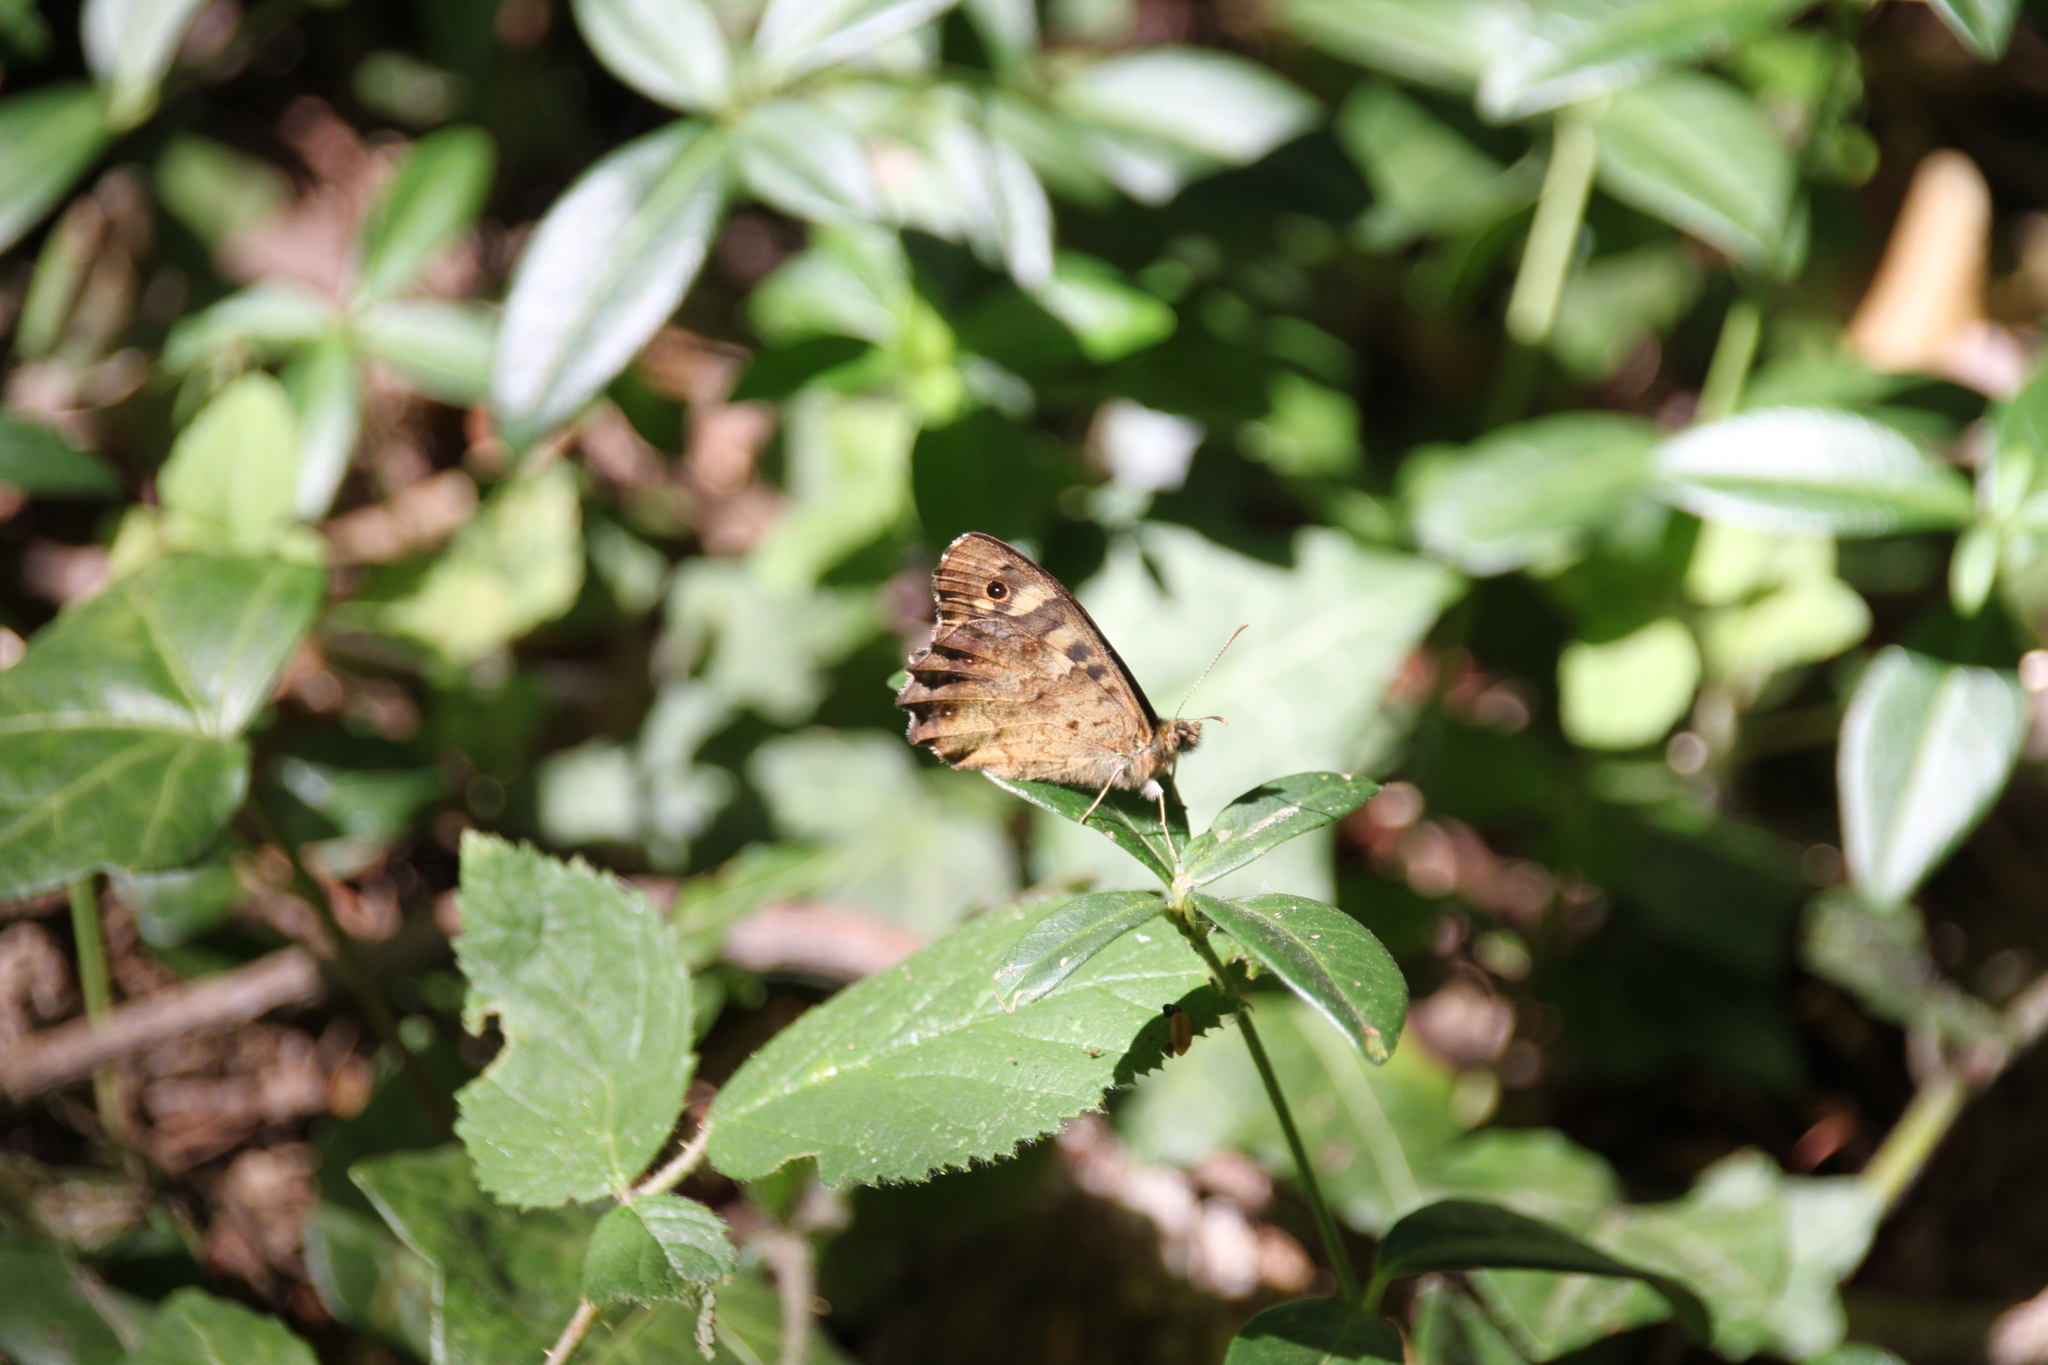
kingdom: Animalia
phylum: Arthropoda
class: Insecta
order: Lepidoptera
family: Nymphalidae
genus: Pararge
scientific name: Pararge aegeria
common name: Speckled wood
